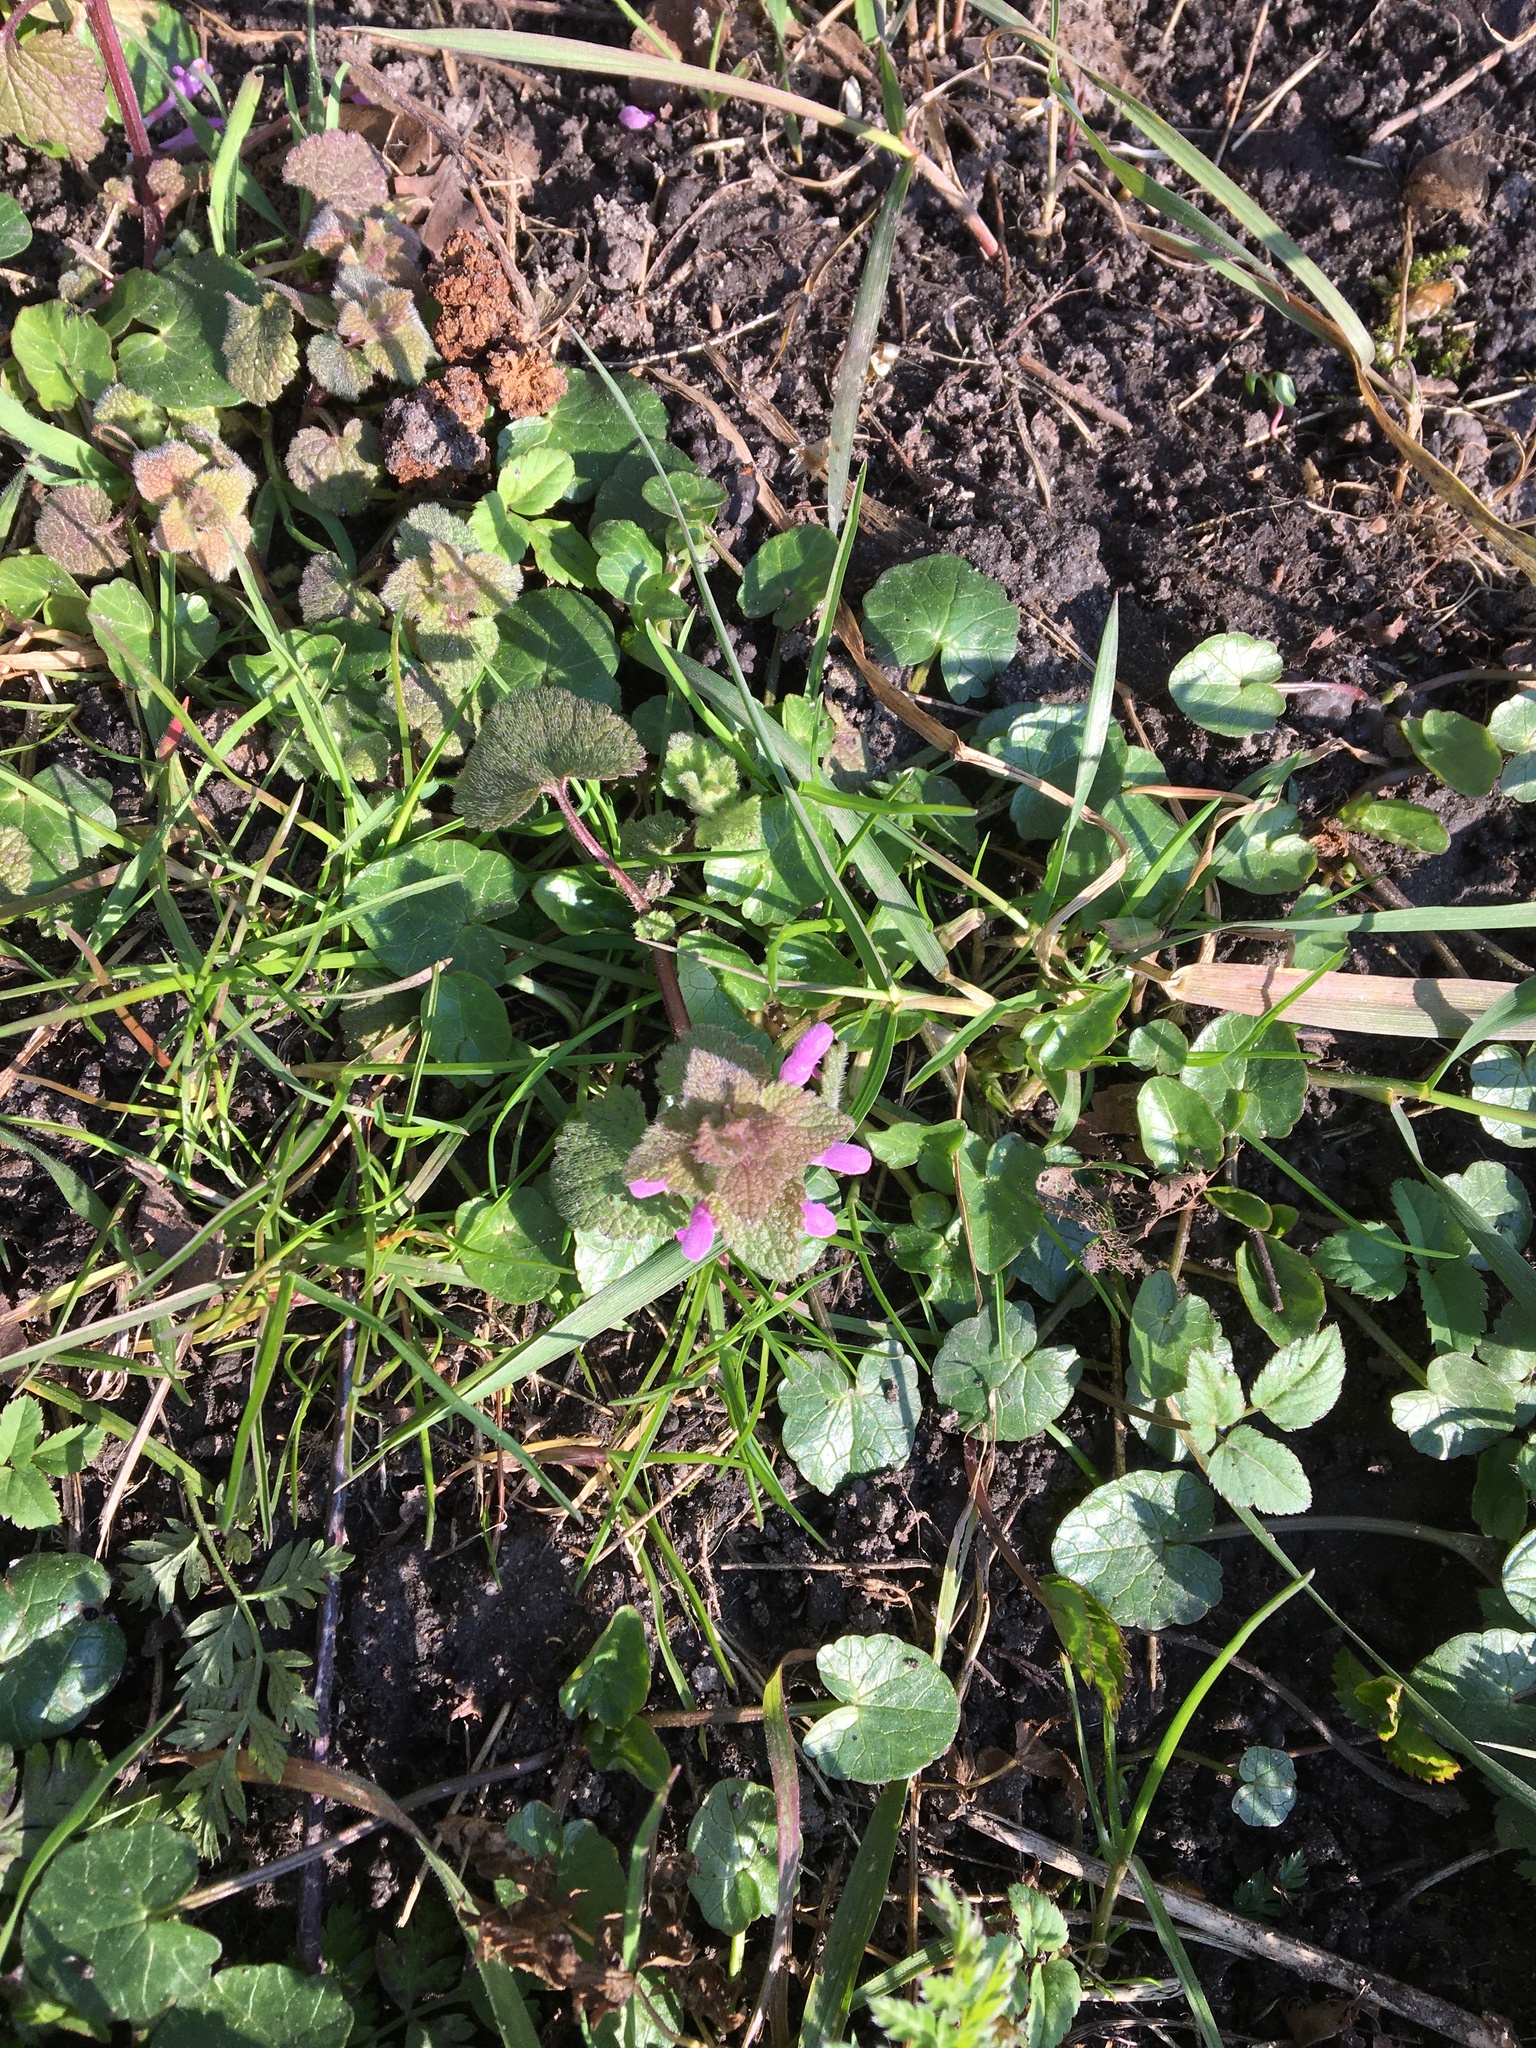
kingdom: Plantae
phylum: Tracheophyta
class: Magnoliopsida
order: Lamiales
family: Lamiaceae
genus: Lamium
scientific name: Lamium purpureum
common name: Red dead-nettle
